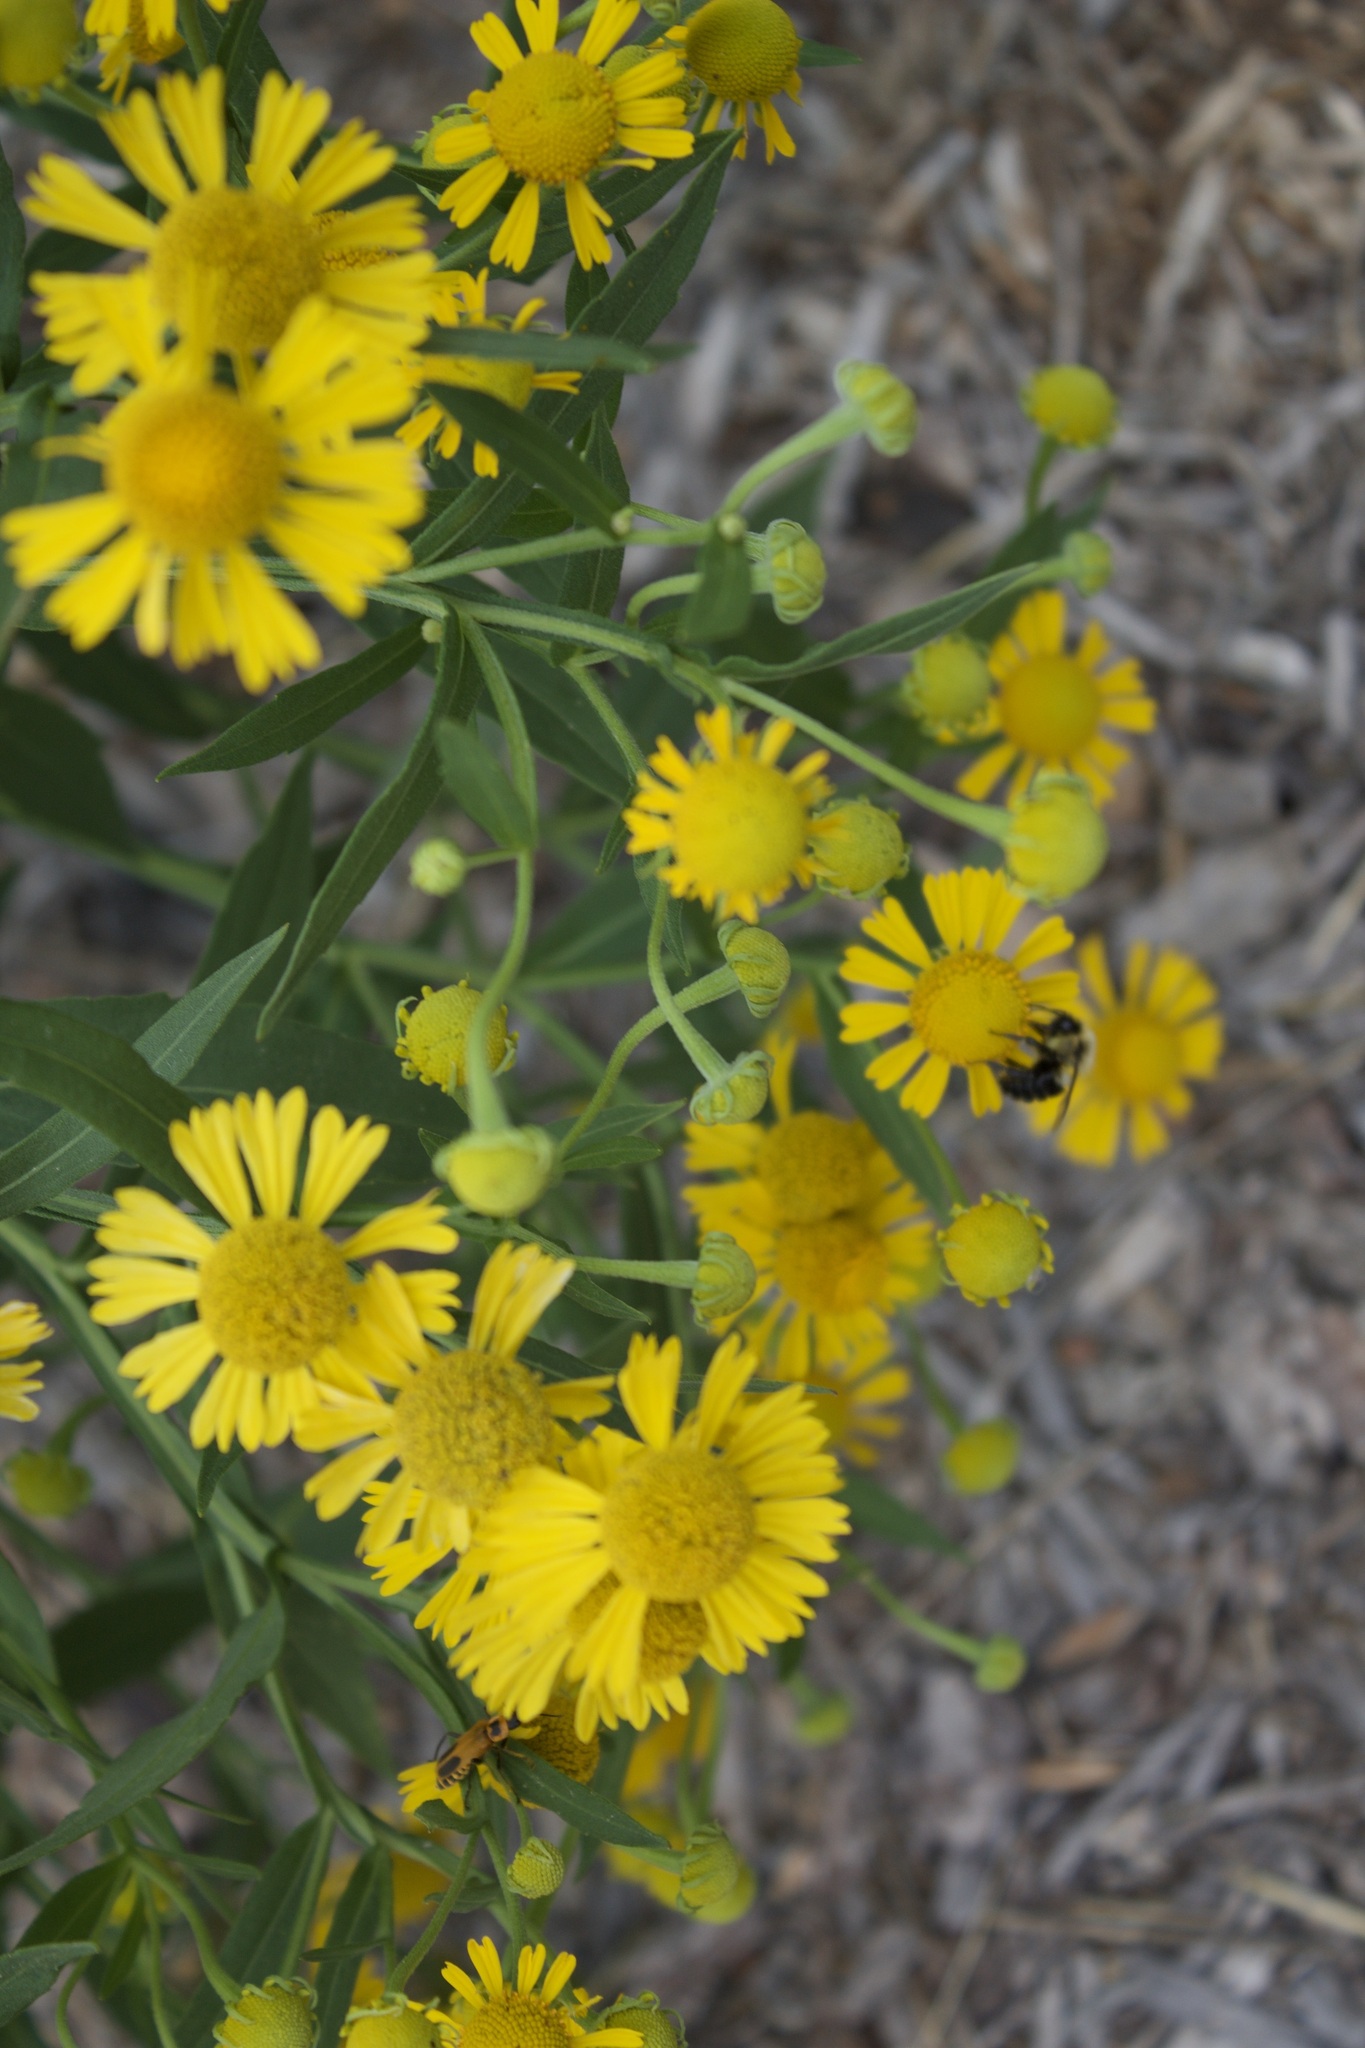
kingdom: Animalia
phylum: Arthropoda
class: Insecta
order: Hymenoptera
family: Apidae
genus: Bombus
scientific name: Bombus impatiens
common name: Common eastern bumble bee
